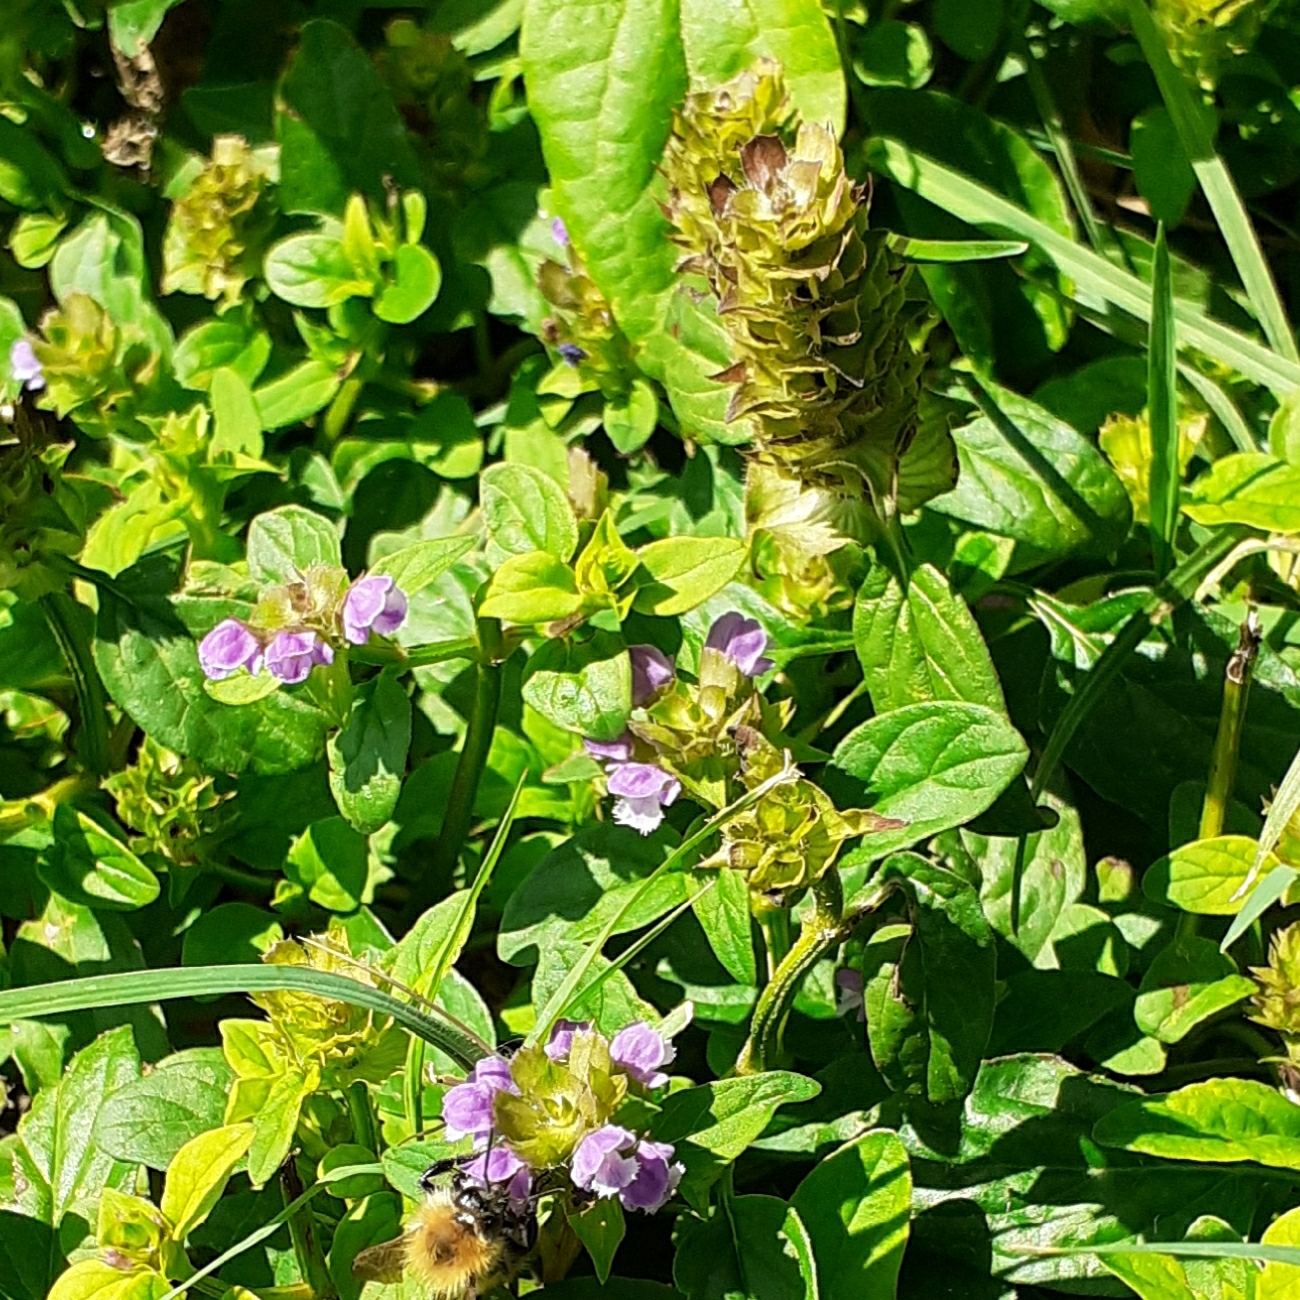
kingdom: Plantae
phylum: Tracheophyta
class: Magnoliopsida
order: Lamiales
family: Lamiaceae
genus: Prunella
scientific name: Prunella vulgaris
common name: Heal-all
